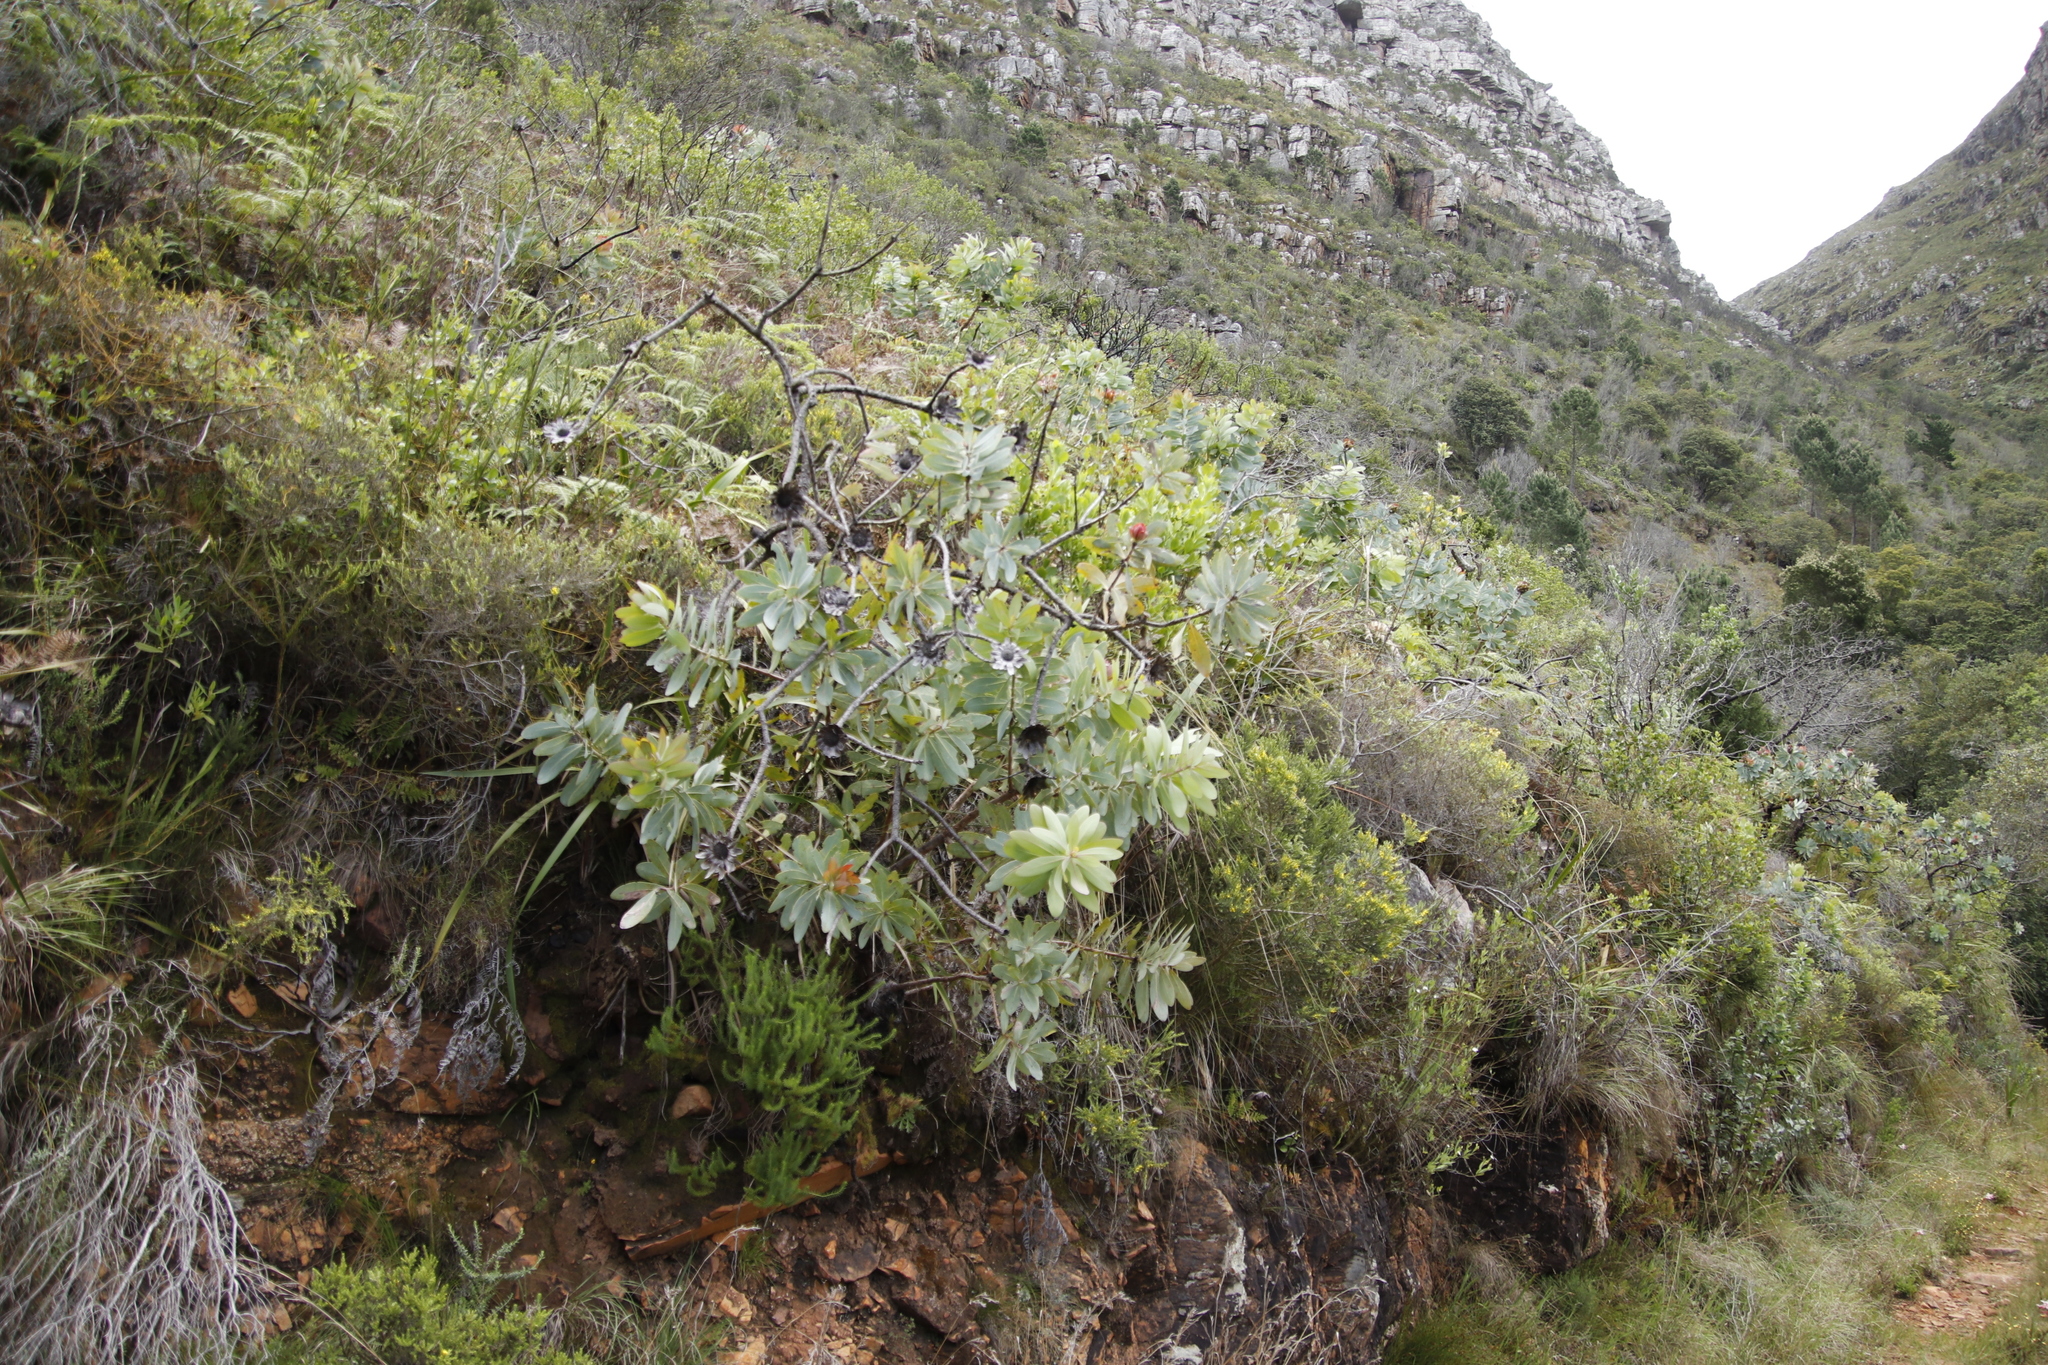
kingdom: Plantae
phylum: Tracheophyta
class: Magnoliopsida
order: Proteales
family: Proteaceae
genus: Protea
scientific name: Protea nitida
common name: Tree protea
